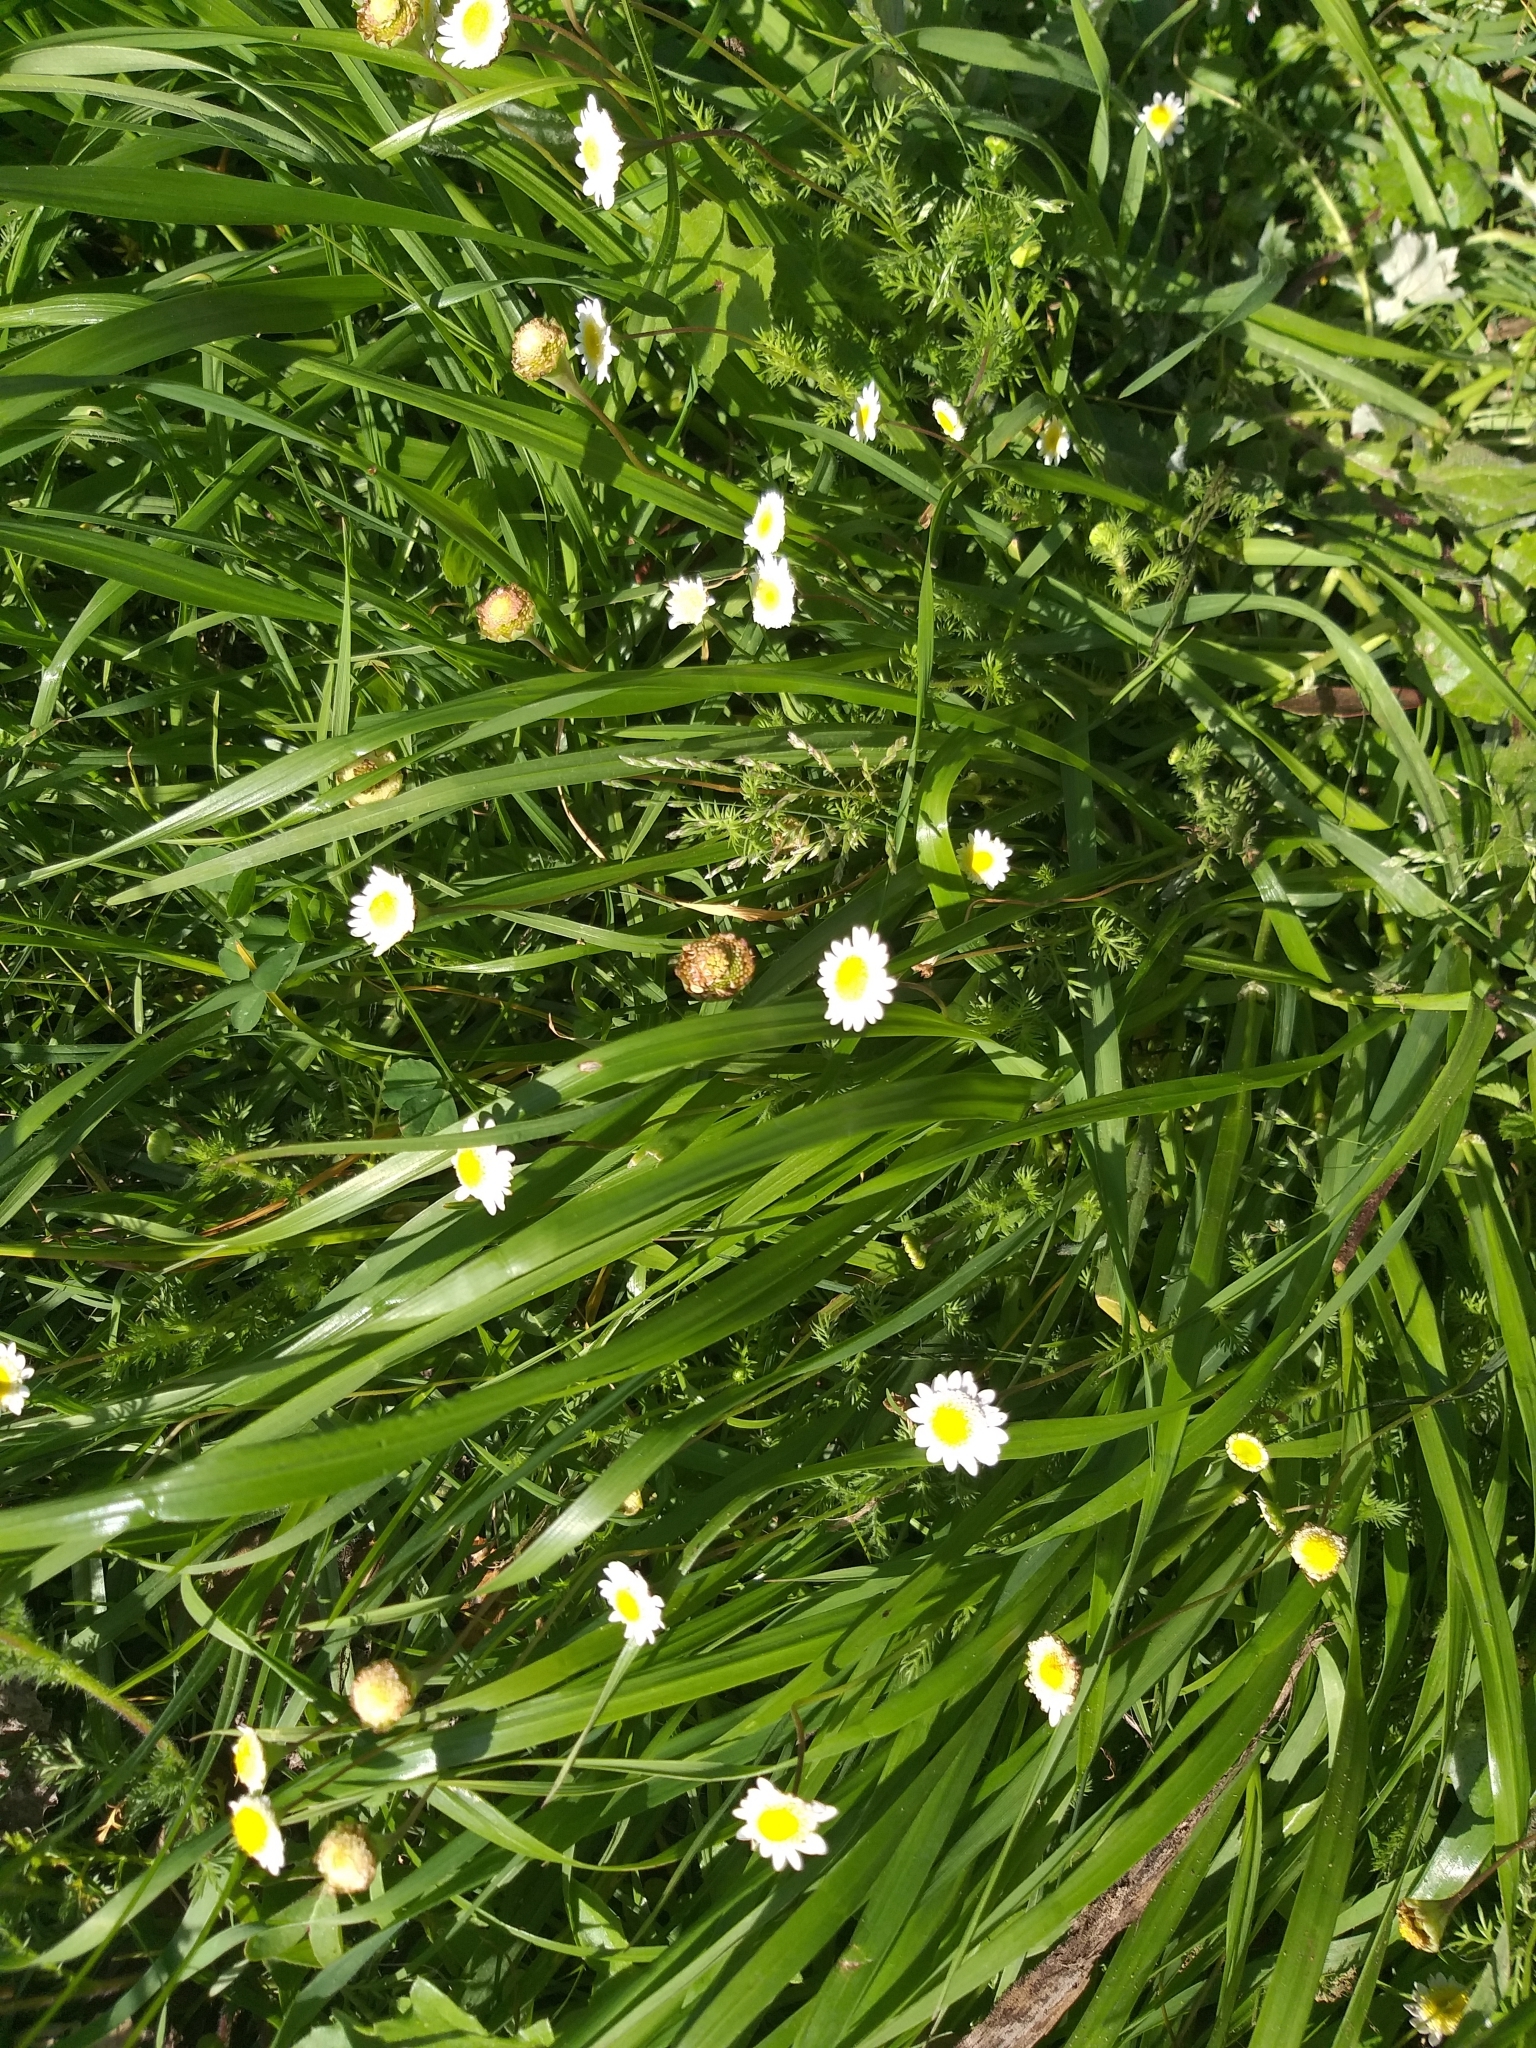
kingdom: Plantae
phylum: Tracheophyta
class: Magnoliopsida
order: Asterales
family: Asteraceae
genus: Cotula
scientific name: Cotula turbinata
